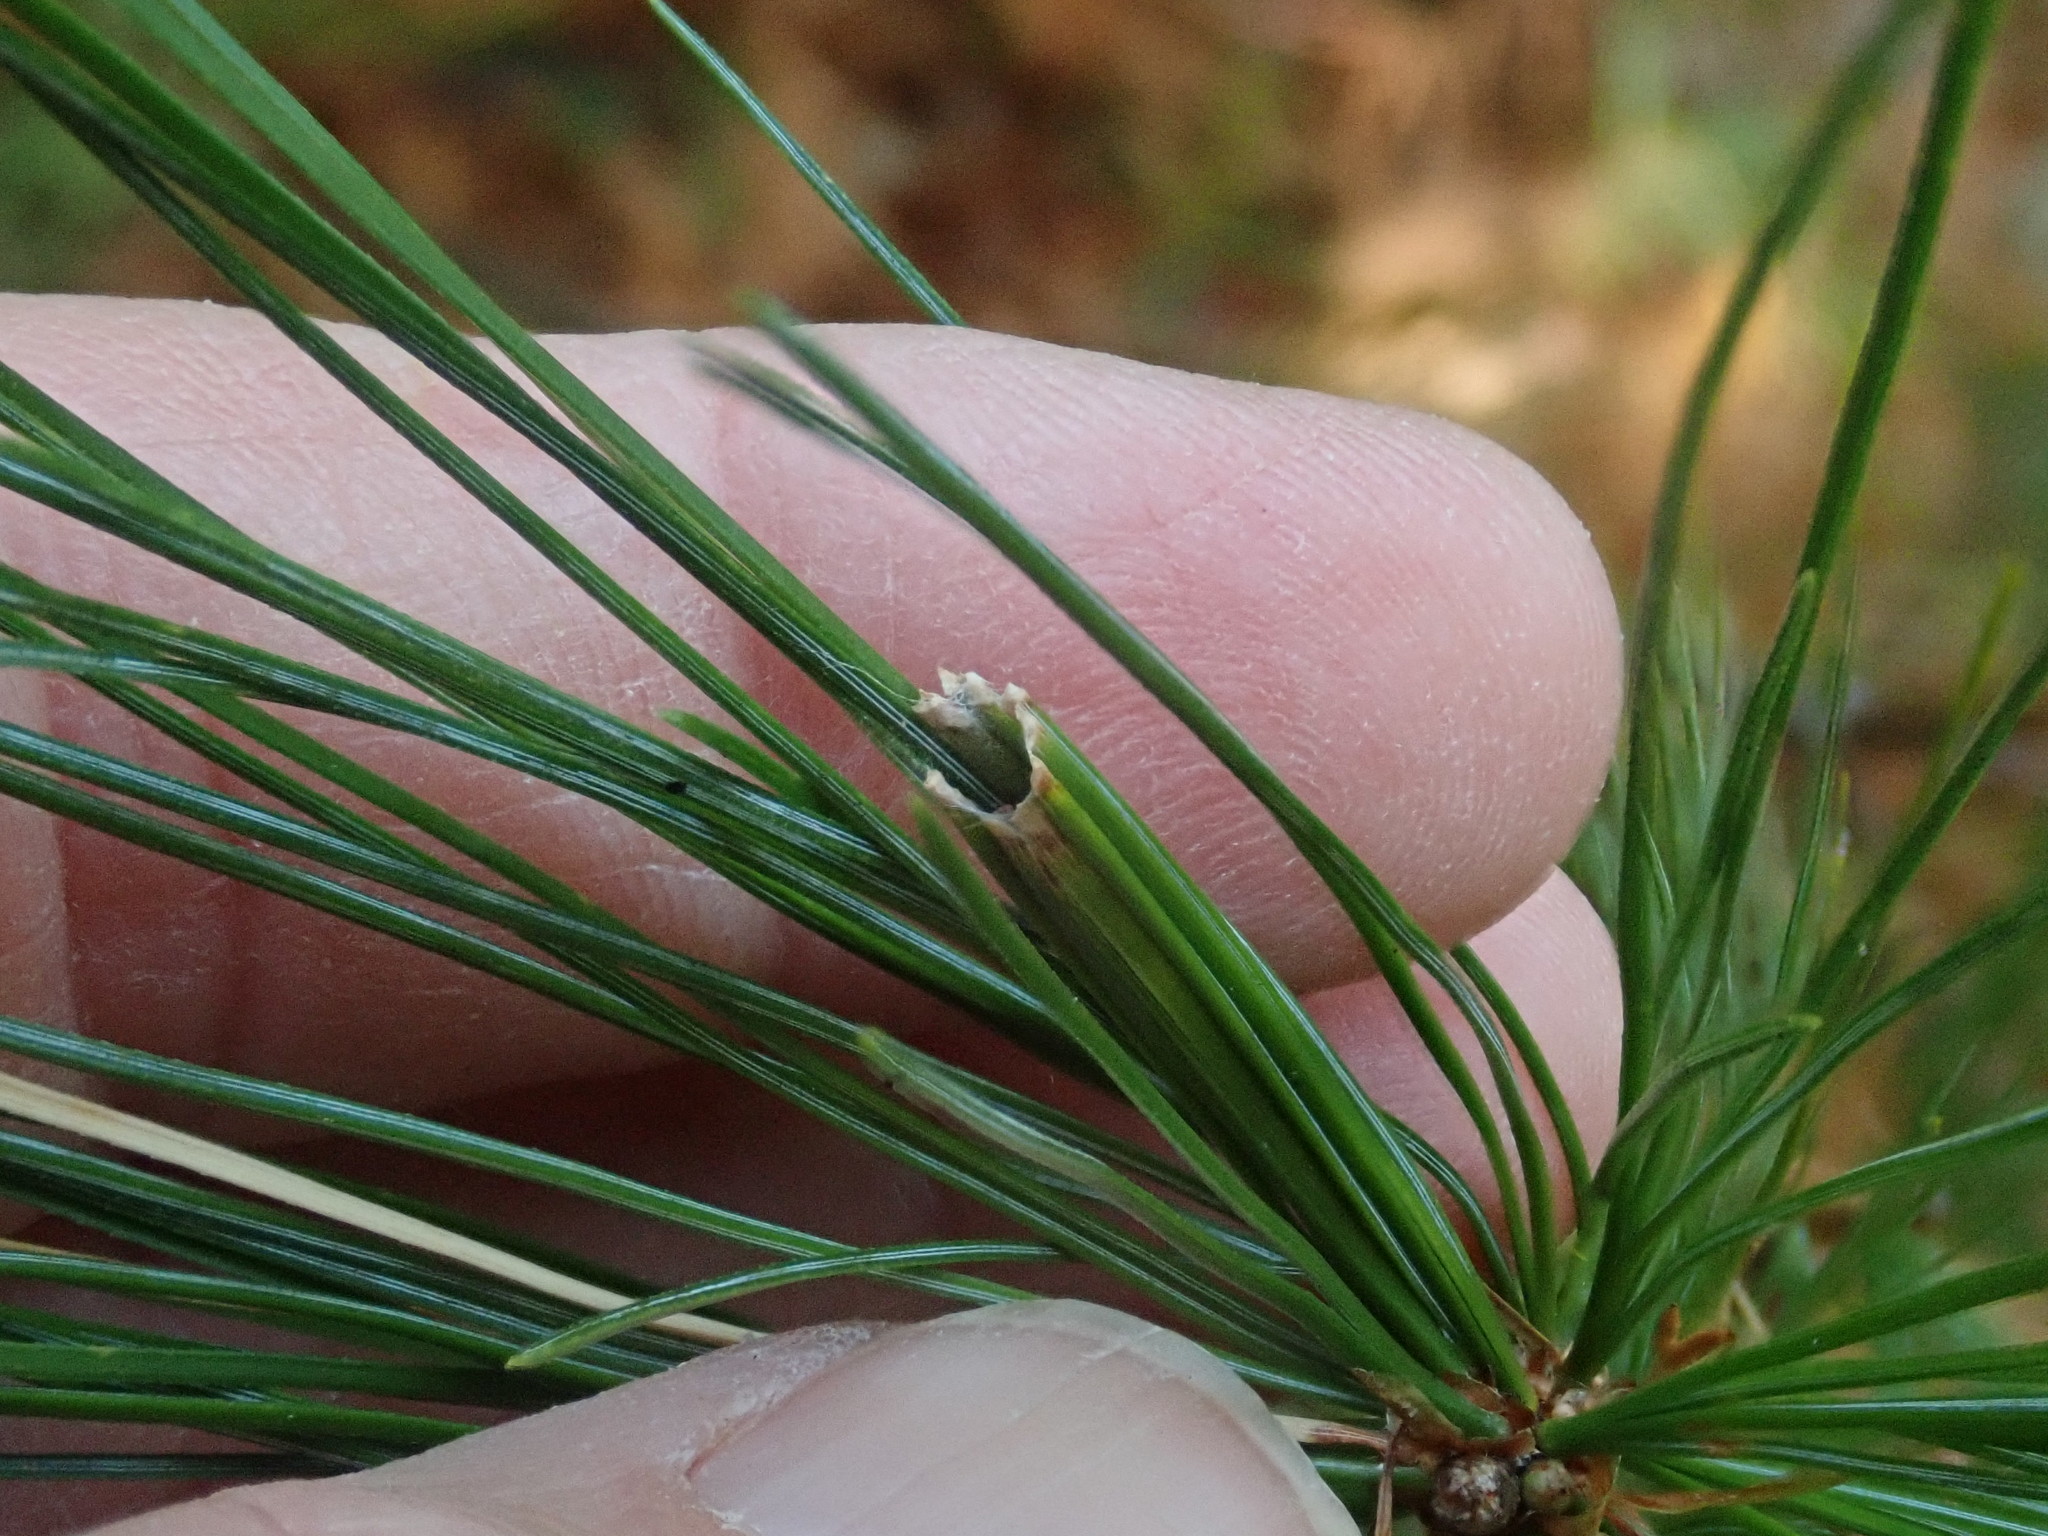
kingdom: Animalia
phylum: Arthropoda
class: Insecta
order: Lepidoptera
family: Tortricidae
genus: Argyrotaenia
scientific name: Argyrotaenia pinatubana
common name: Pine tube moth
